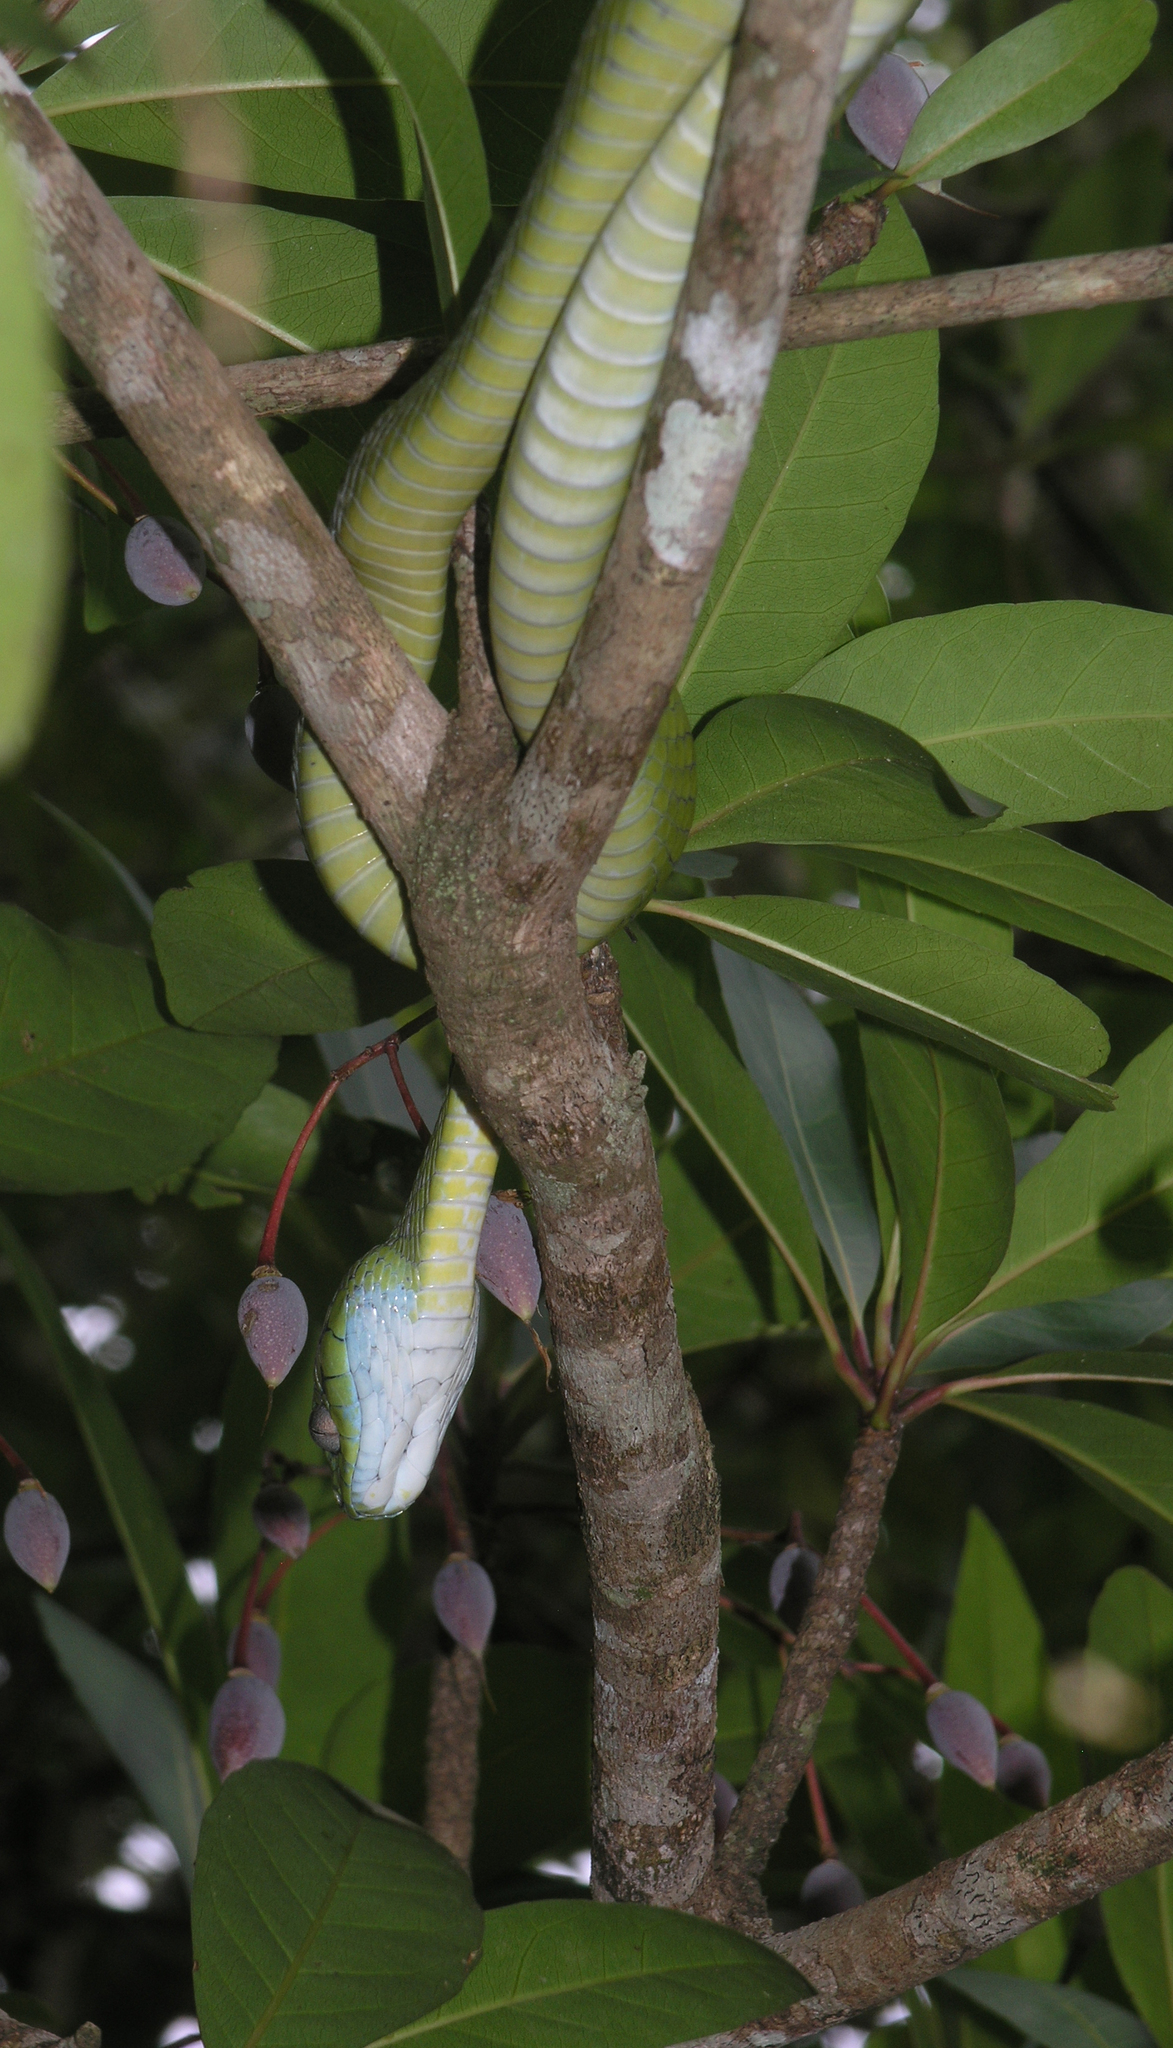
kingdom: Animalia
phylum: Chordata
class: Squamata
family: Colubridae
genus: Boiga
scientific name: Boiga cyanea
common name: Green cat snake
